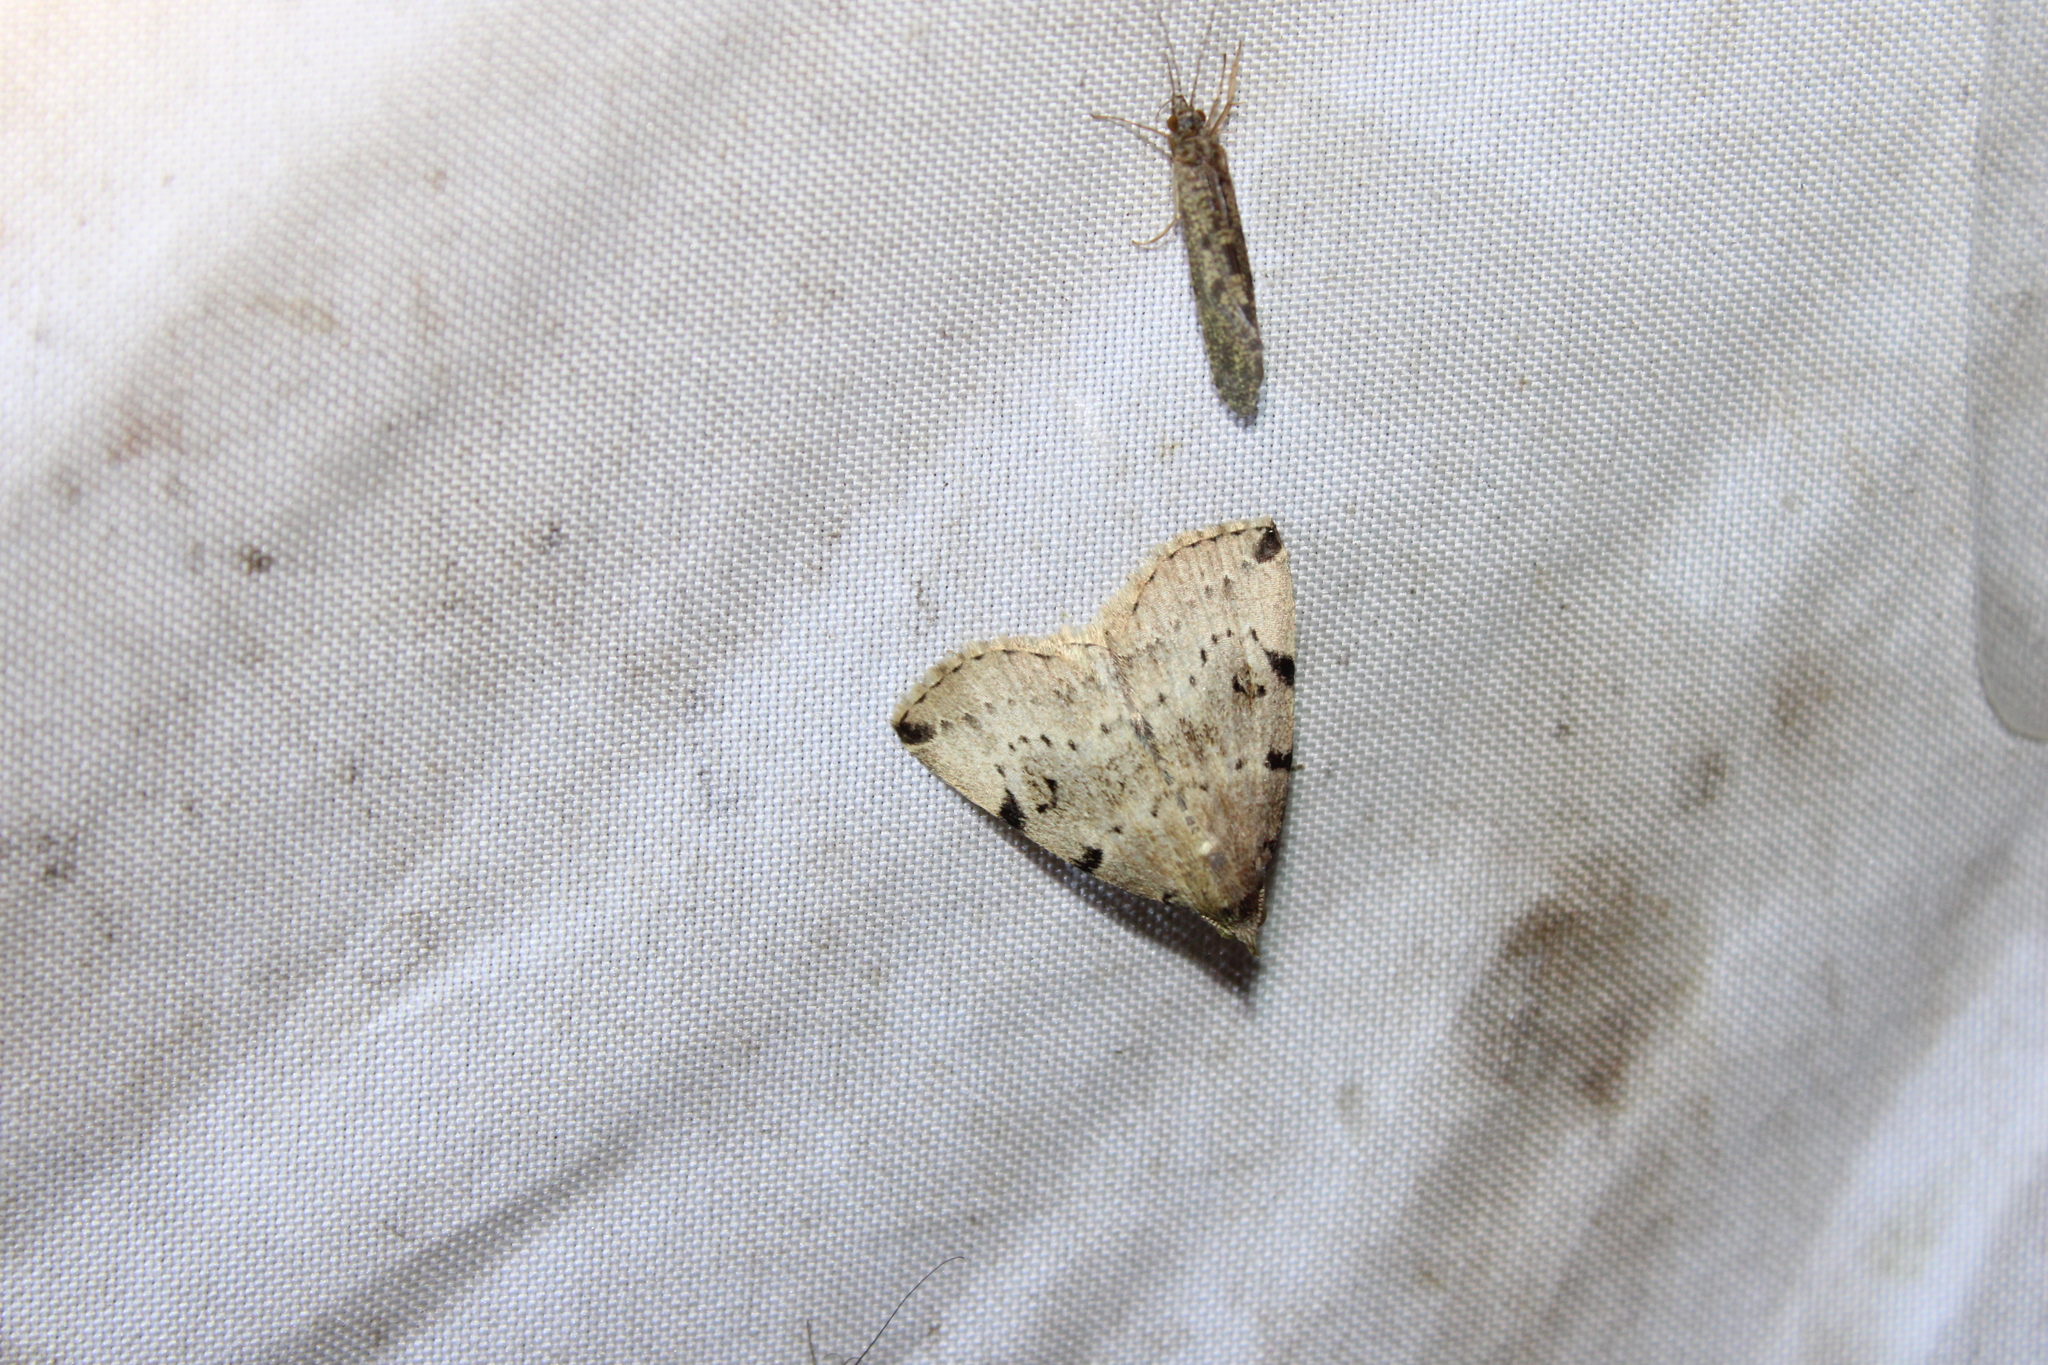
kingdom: Animalia
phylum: Arthropoda
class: Insecta
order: Lepidoptera
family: Erebidae
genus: Zanclognatha
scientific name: Zanclognatha lituralis
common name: Lettered fan-foot
